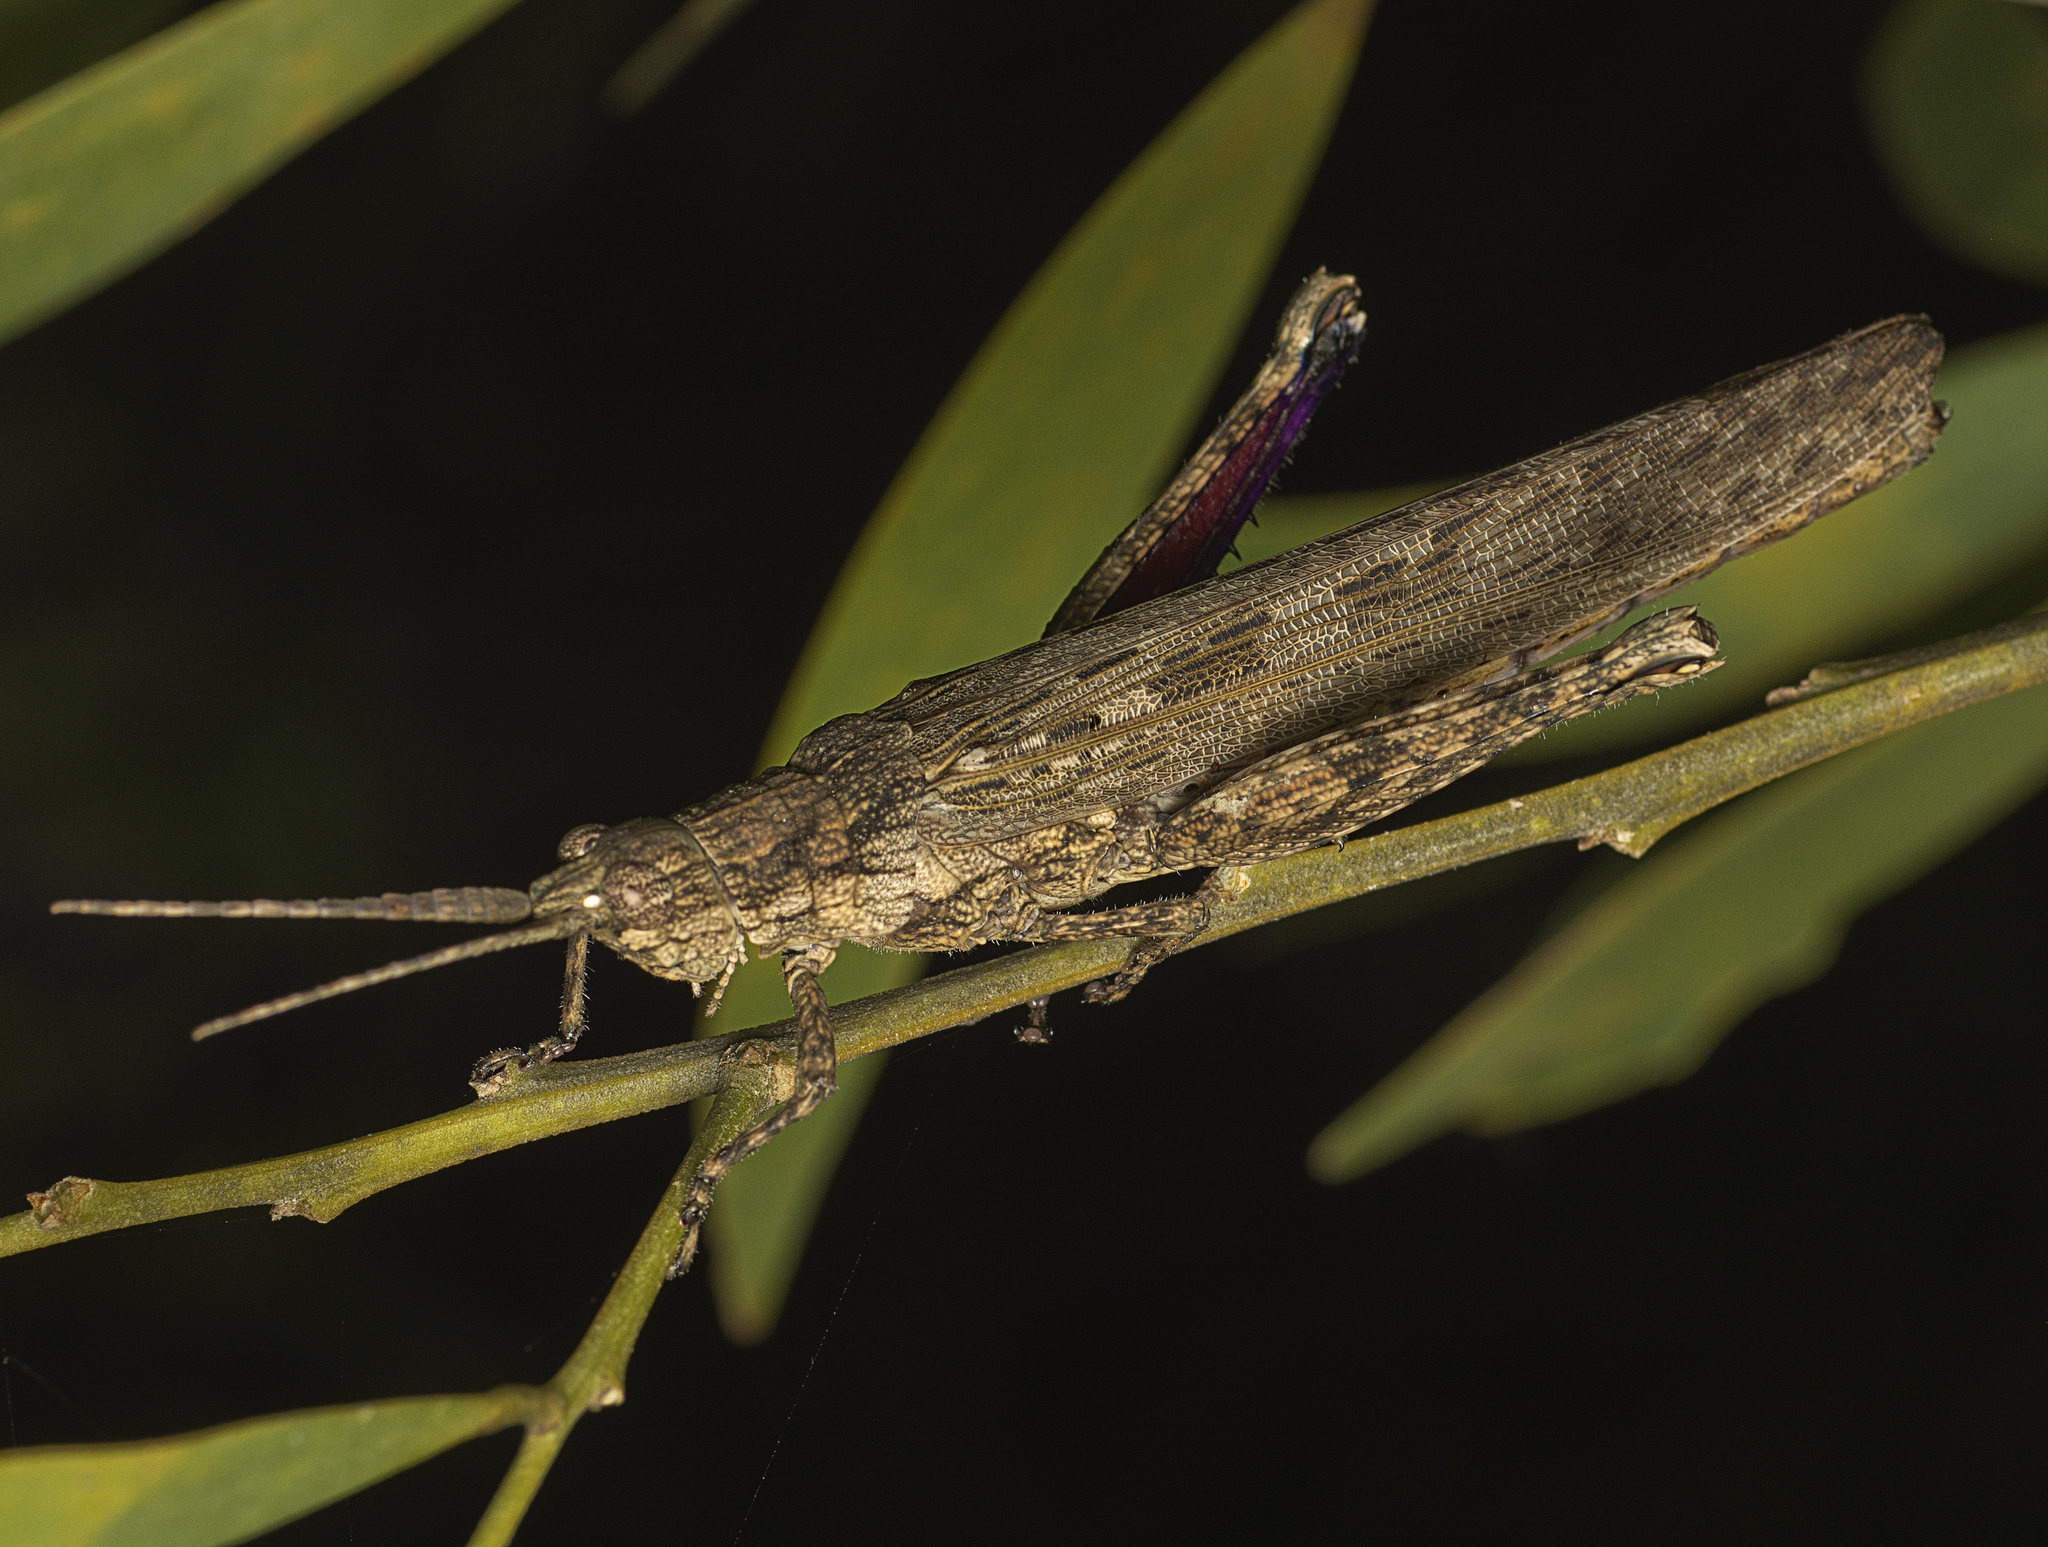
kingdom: Animalia
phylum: Arthropoda
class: Insecta
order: Orthoptera
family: Acrididae
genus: Coryphistes
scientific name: Coryphistes ruricola
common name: Bark-mimicking grasshopper
